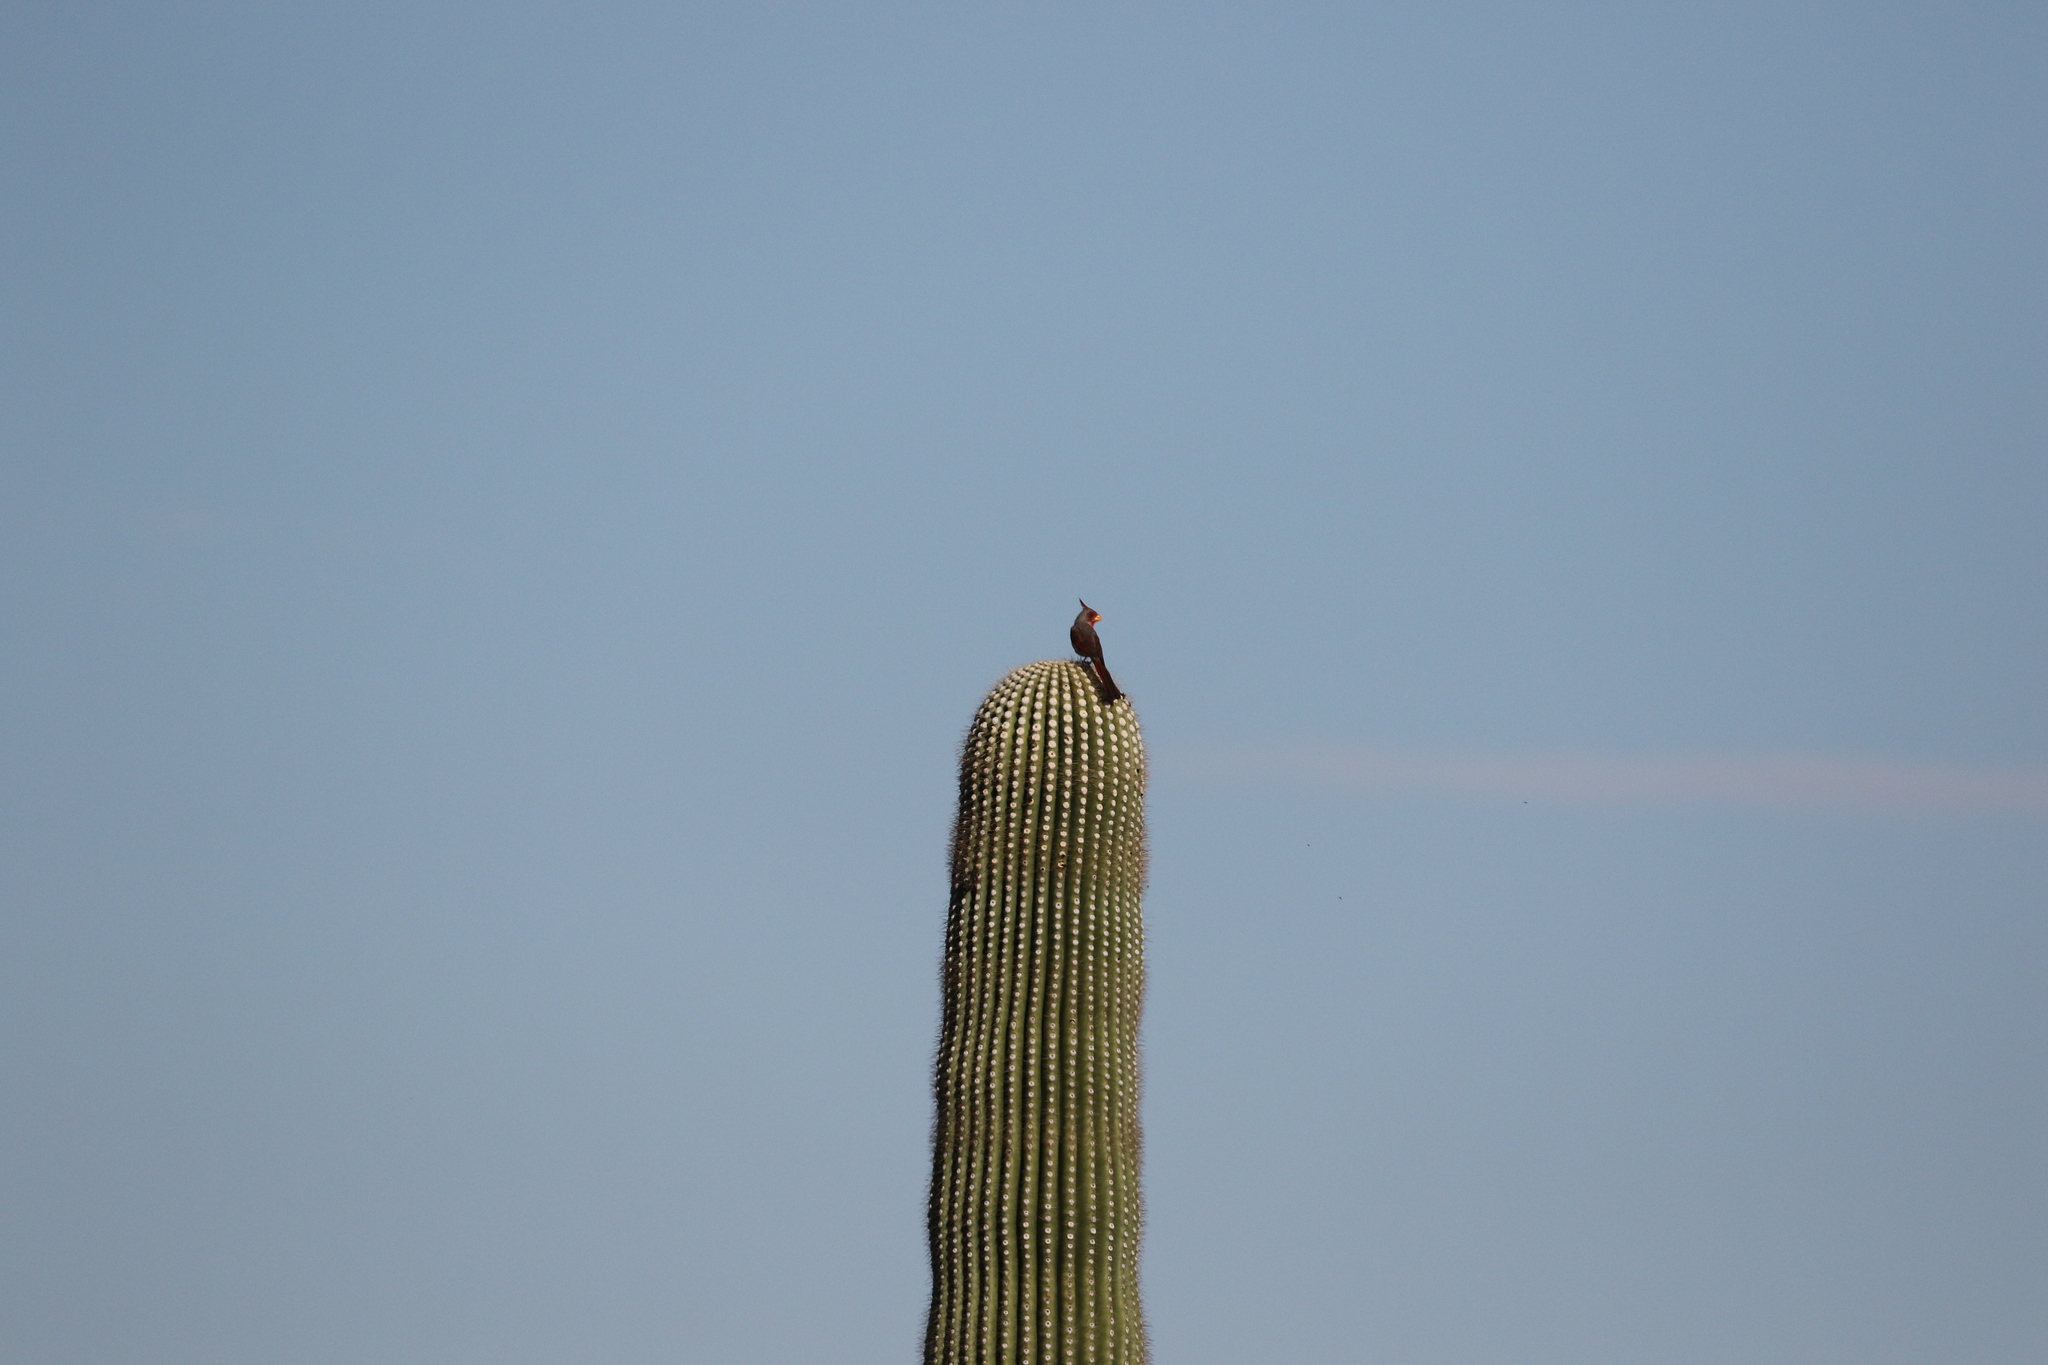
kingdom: Animalia
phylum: Chordata
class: Aves
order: Passeriformes
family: Cardinalidae
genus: Cardinalis
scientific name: Cardinalis sinuatus
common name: Pyrrhuloxia
